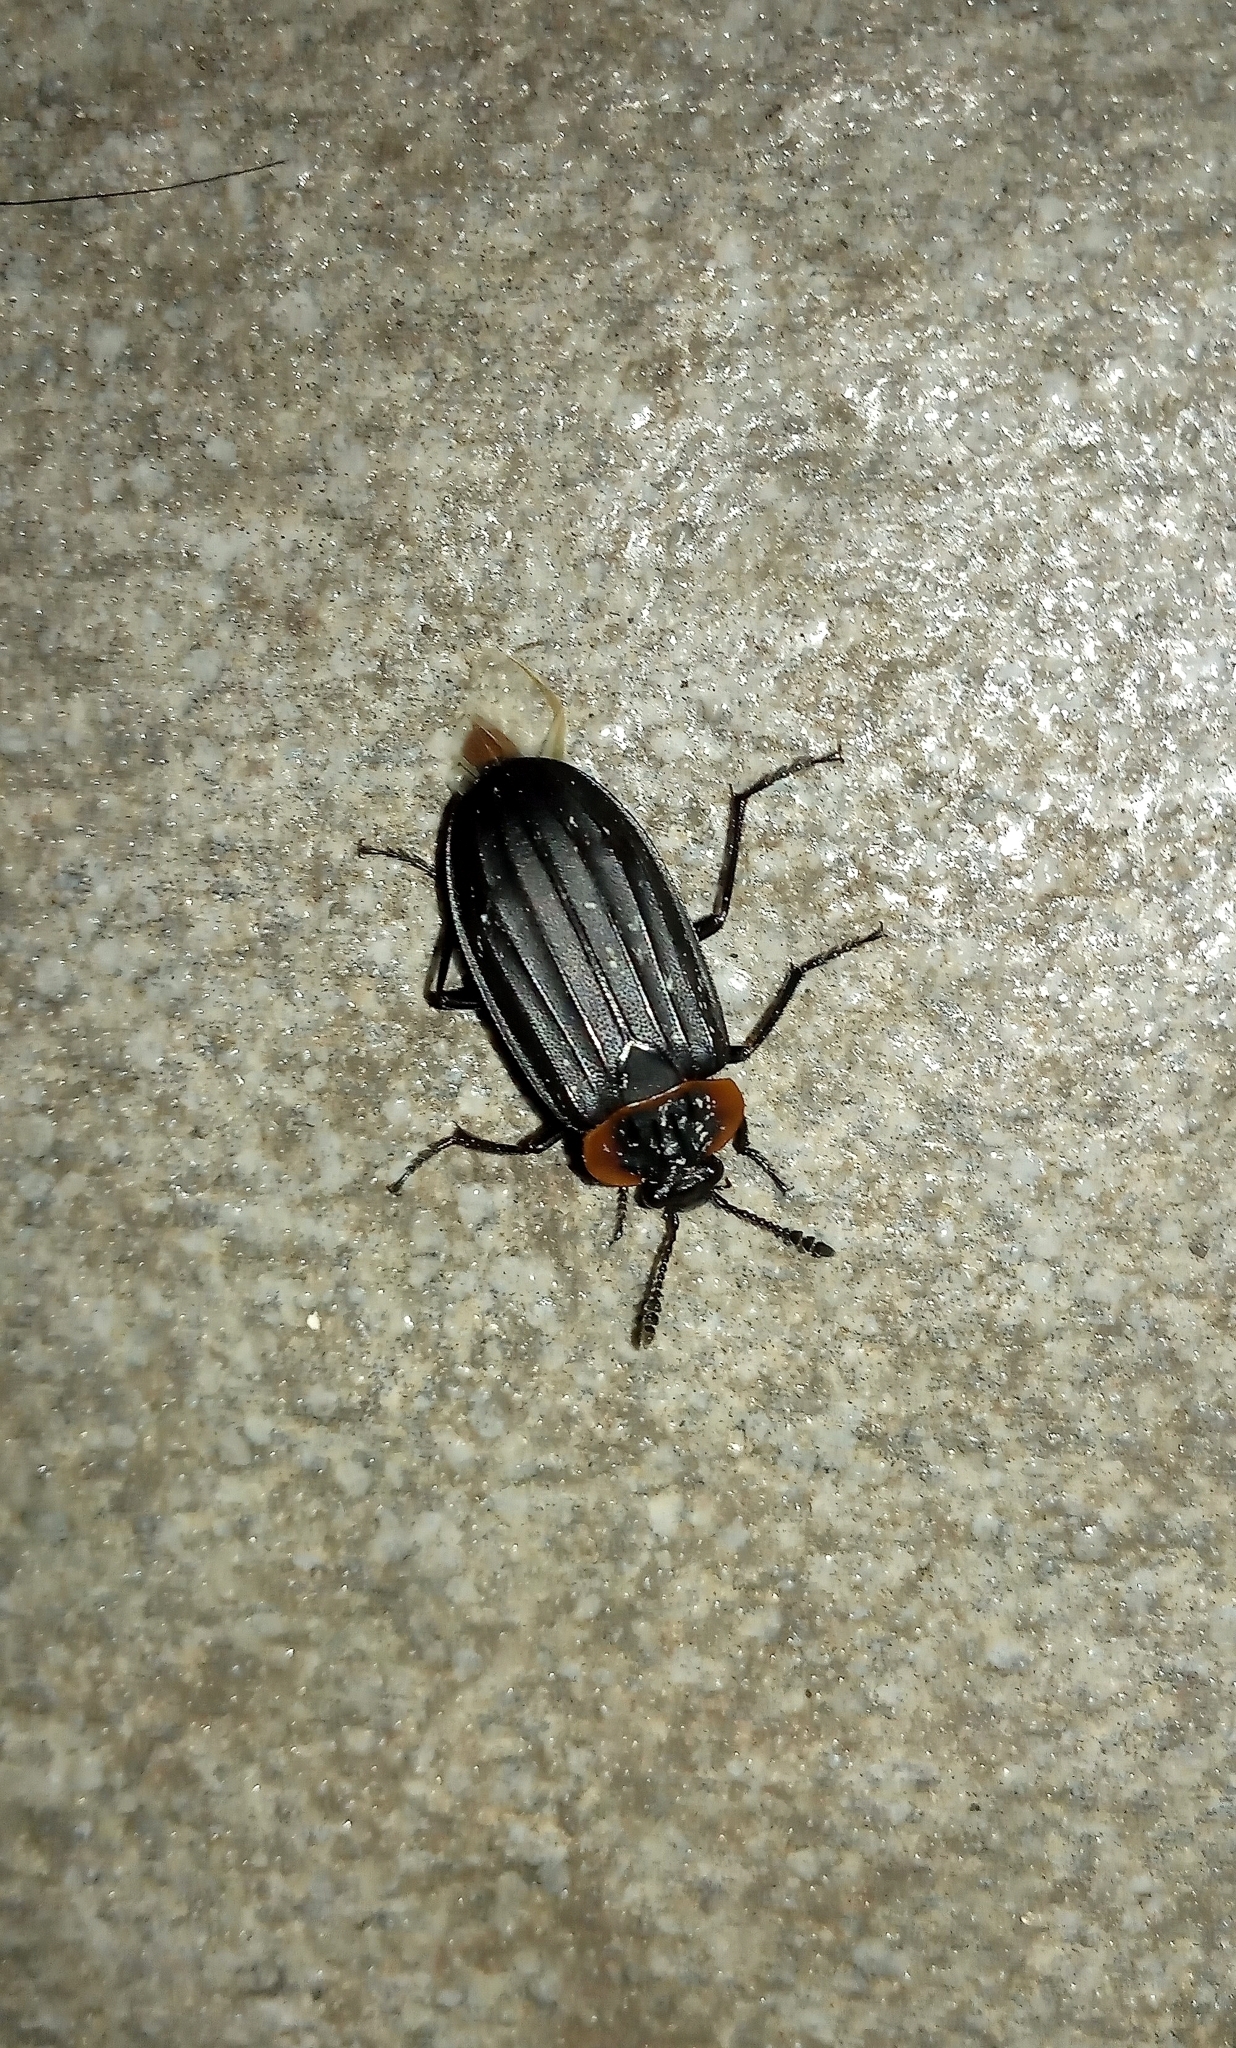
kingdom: Animalia
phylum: Arthropoda
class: Insecta
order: Coleoptera
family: Staphylinidae
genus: Oxelytrum
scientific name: Oxelytrum erythrurum
